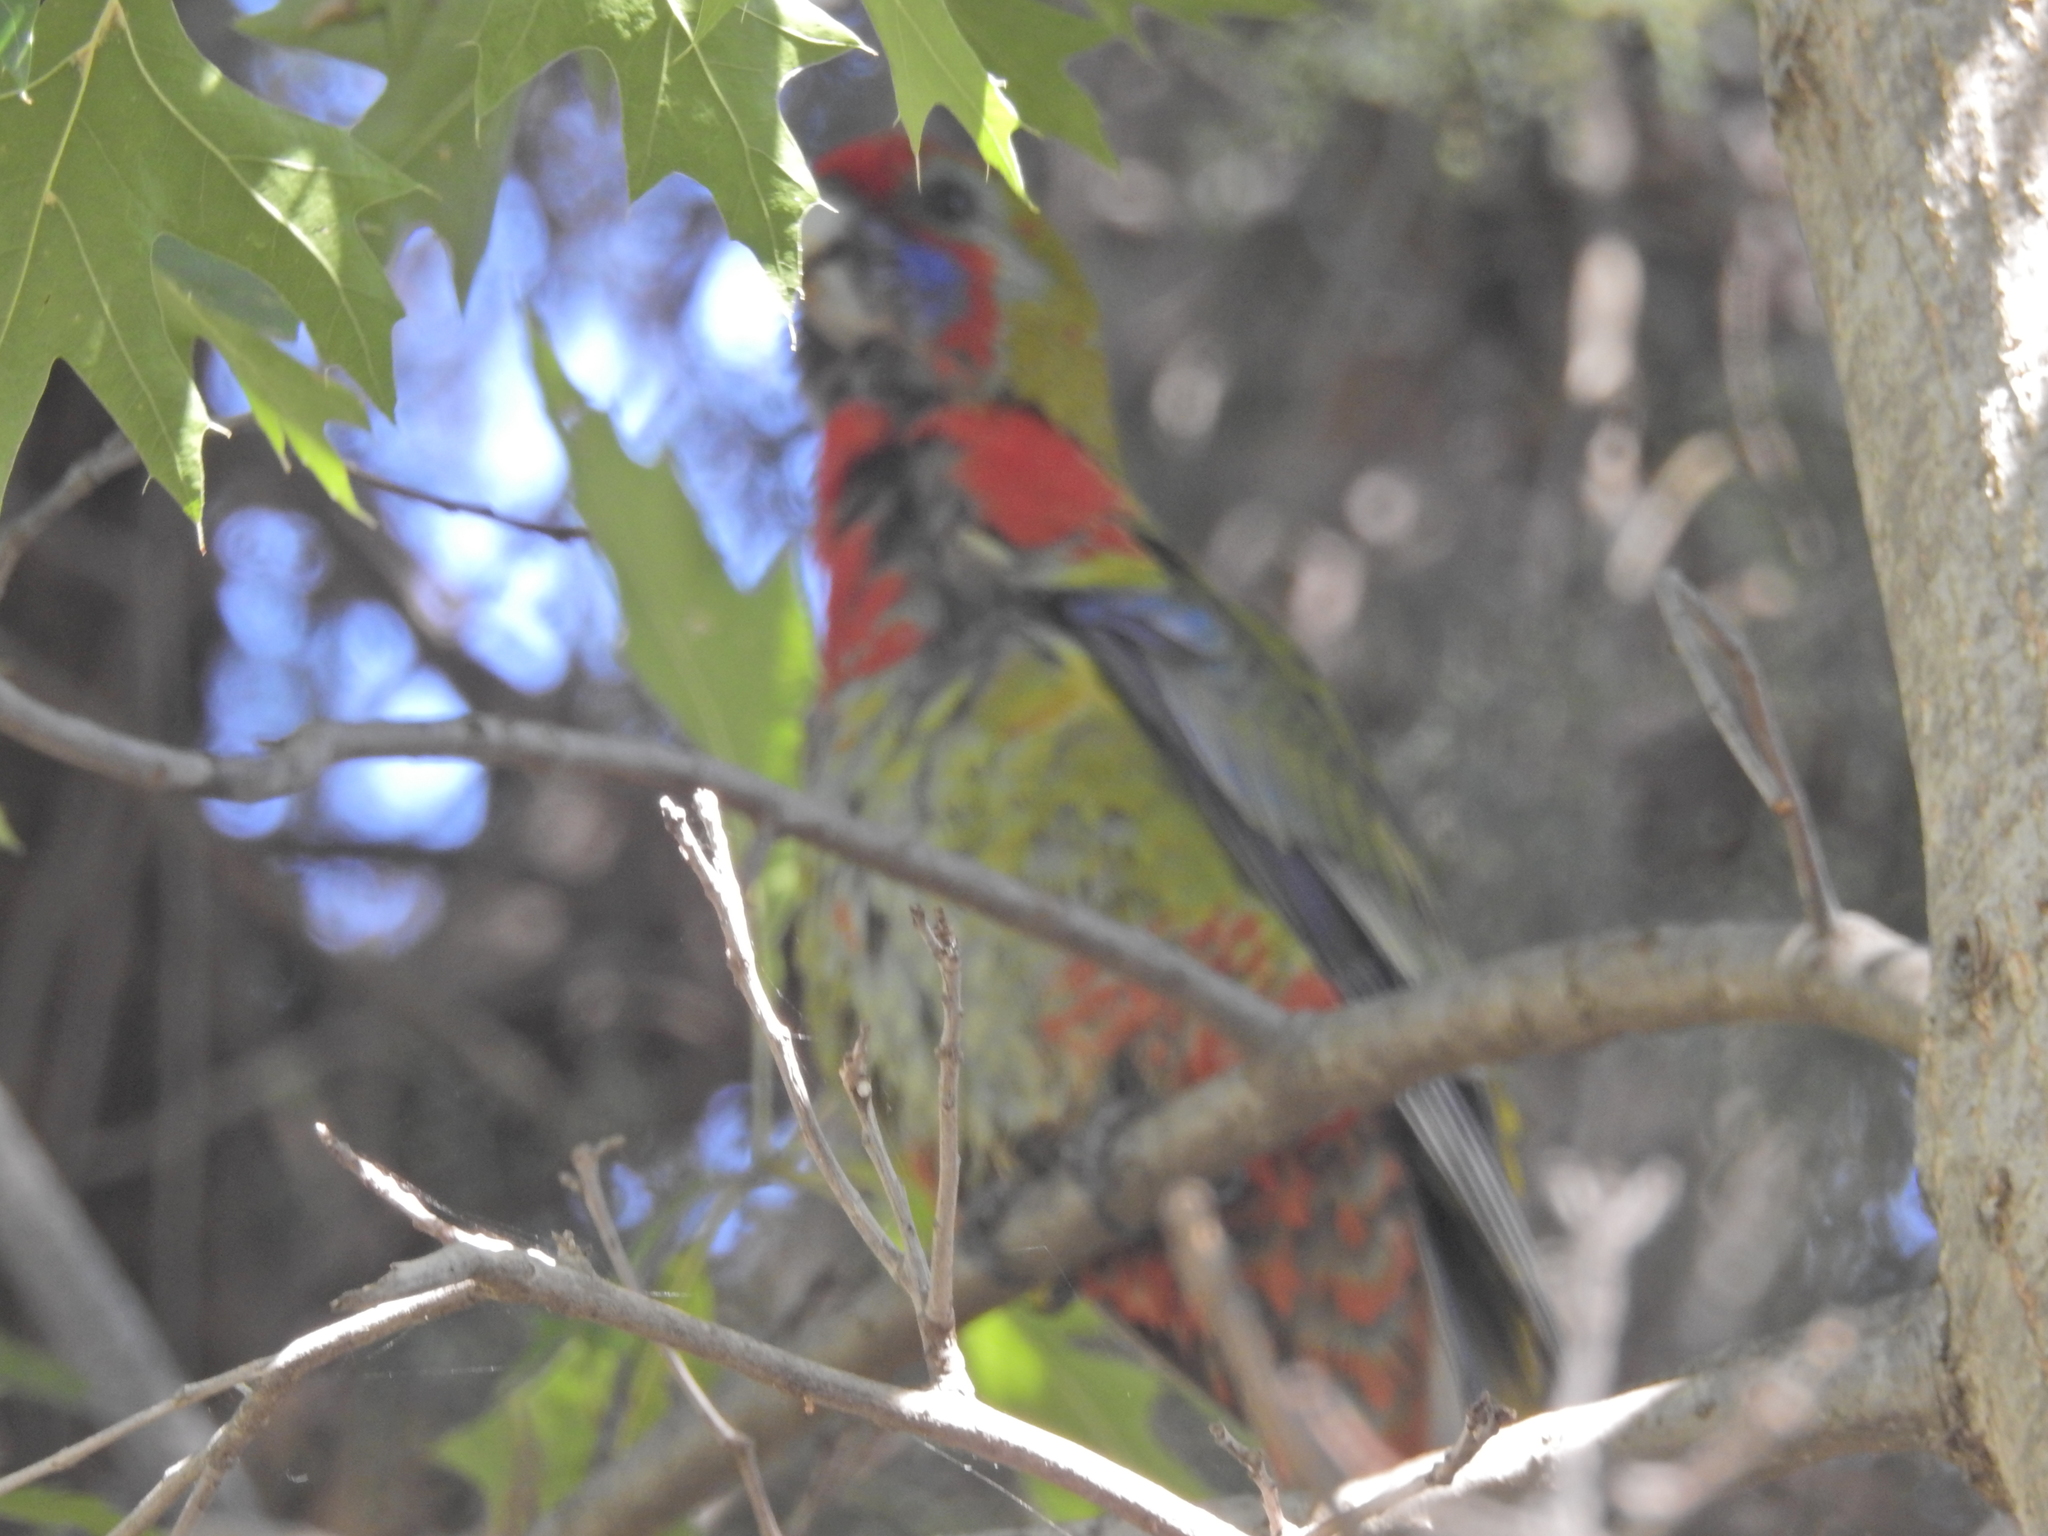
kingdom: Animalia
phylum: Chordata
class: Aves
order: Psittaciformes
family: Psittacidae
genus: Platycercus
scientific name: Platycercus elegans
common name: Crimson rosella
